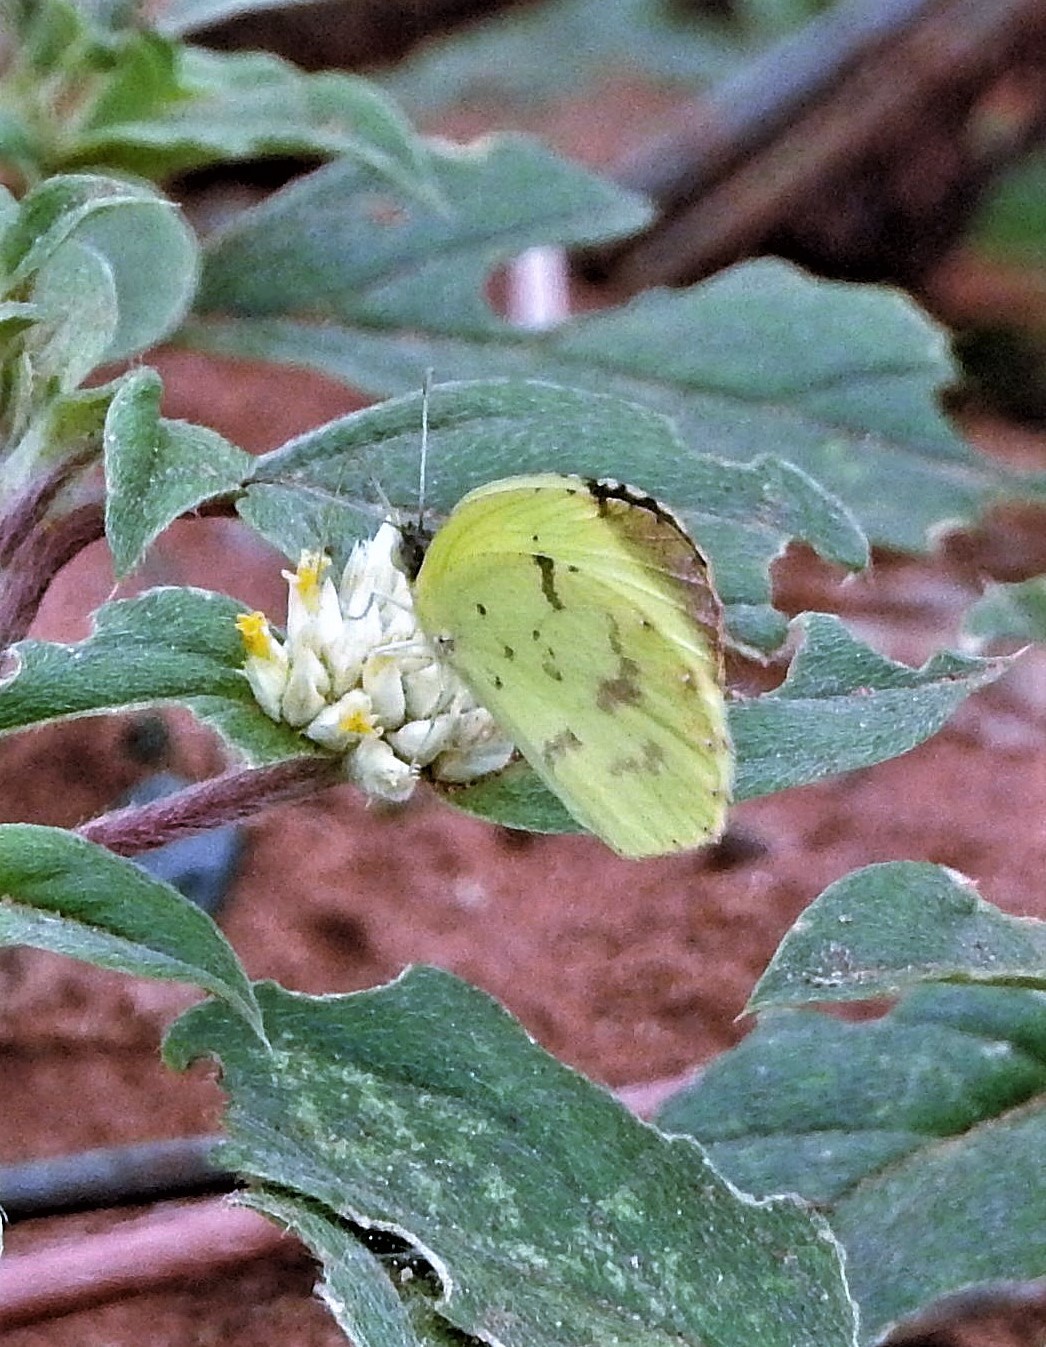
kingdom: Animalia
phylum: Arthropoda
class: Insecta
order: Lepidoptera
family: Pieridae
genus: Teriocolias
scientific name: Teriocolias
